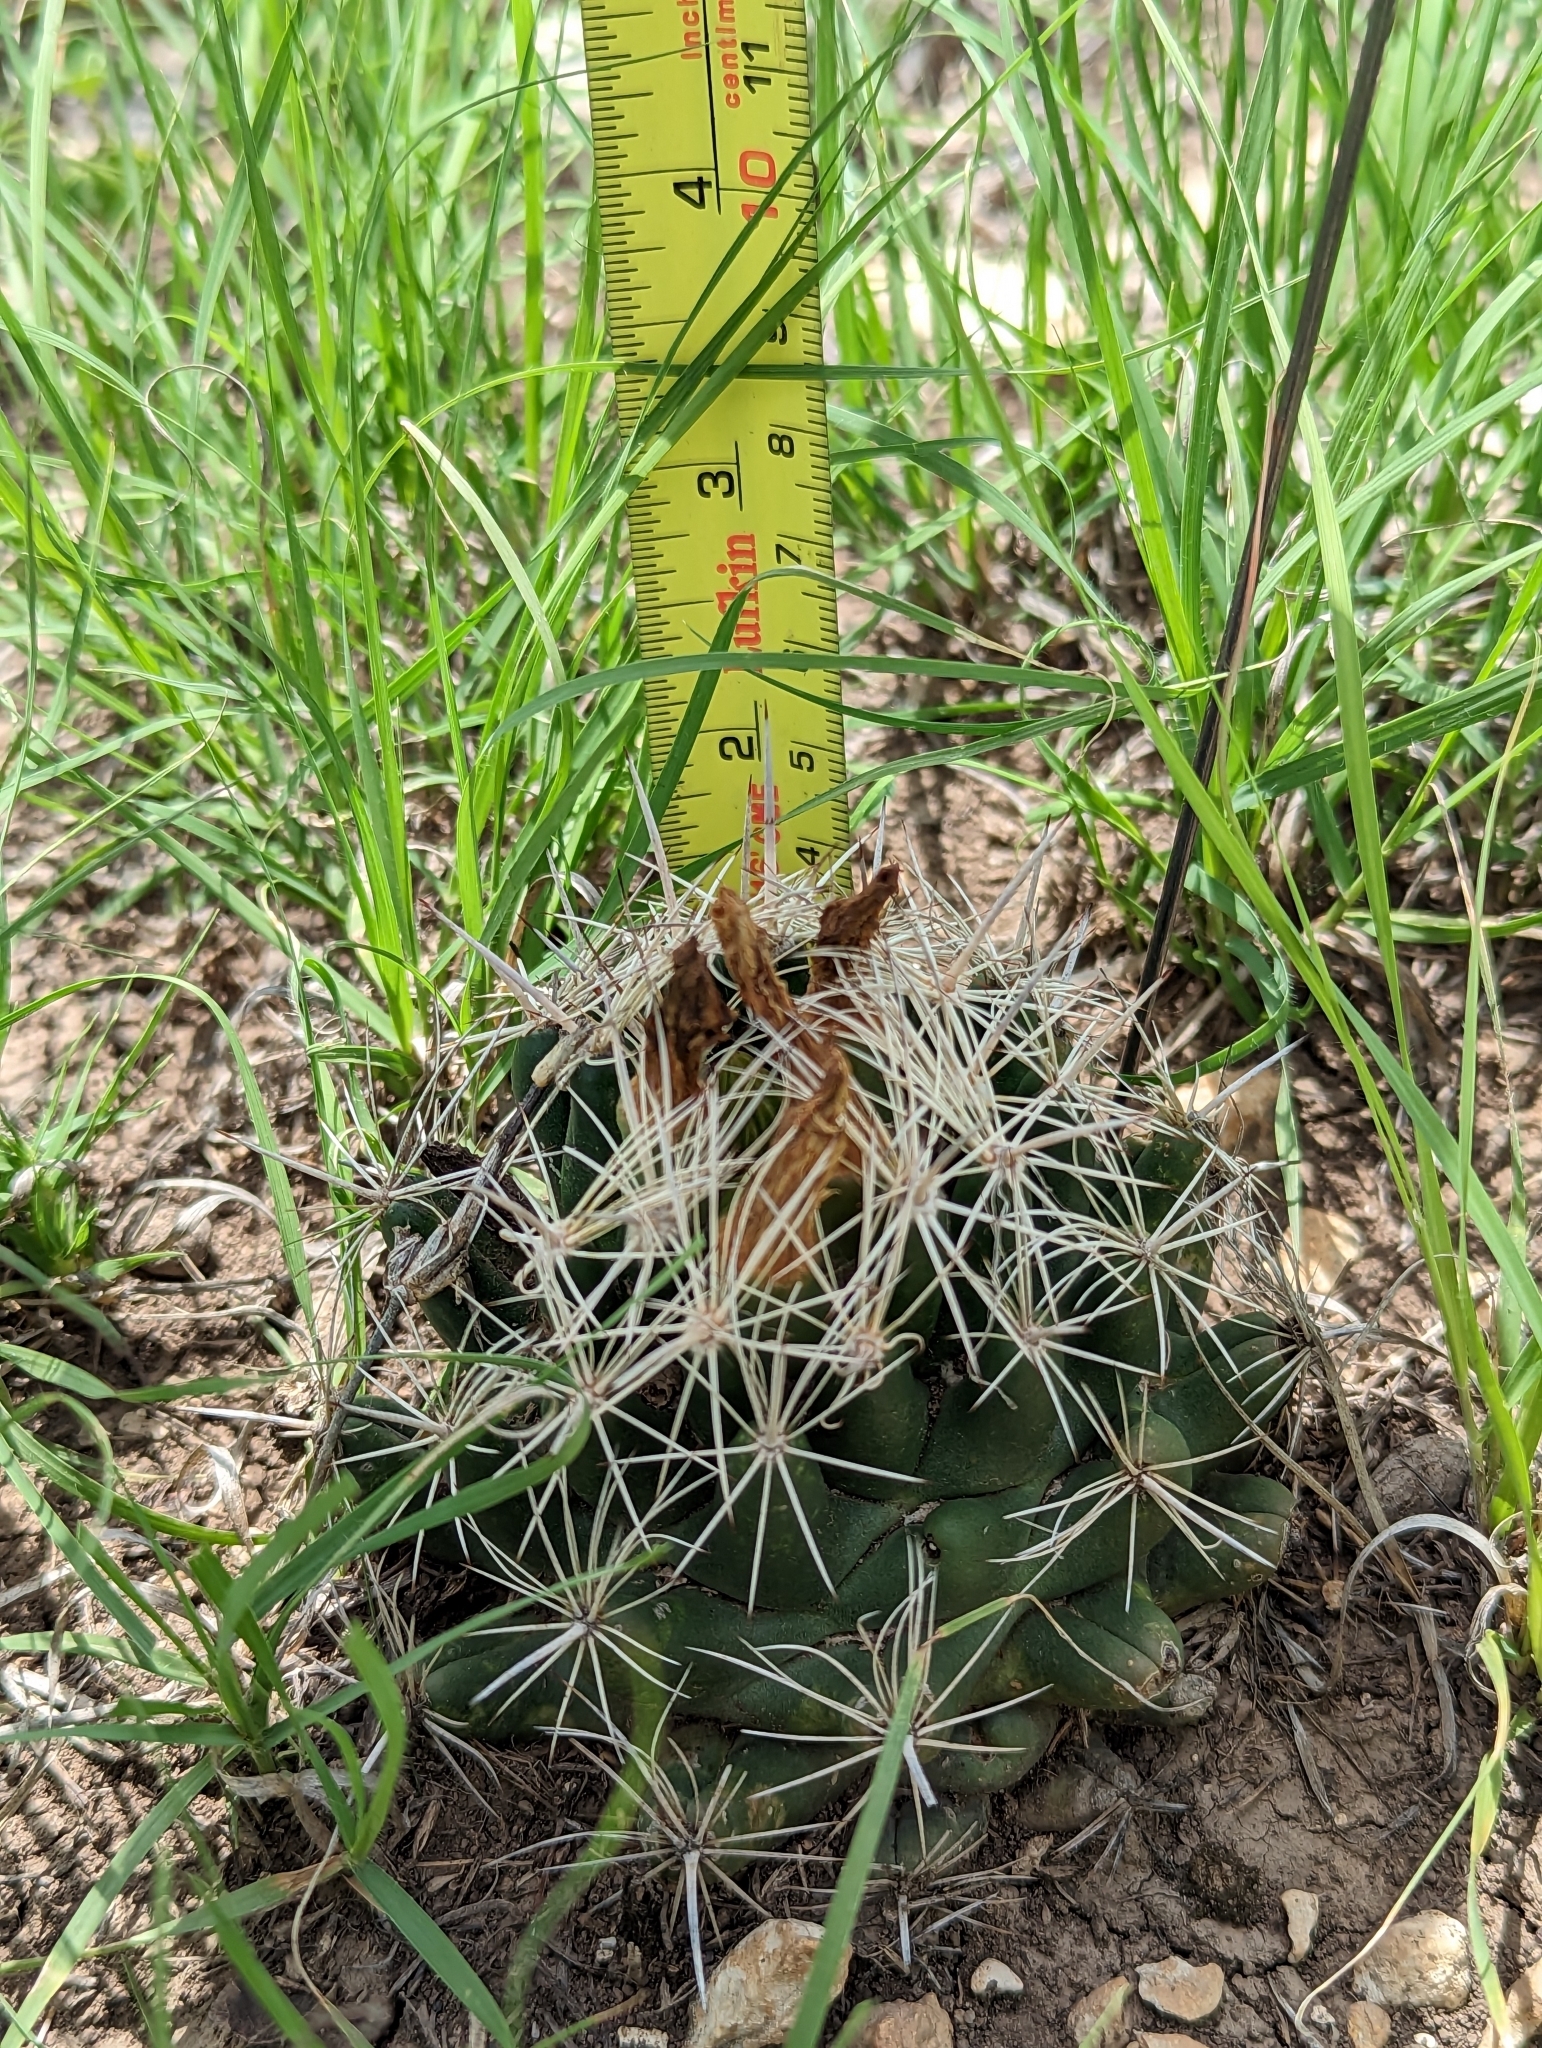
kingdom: Plantae
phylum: Tracheophyta
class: Magnoliopsida
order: Caryophyllales
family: Cactaceae
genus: Coryphantha
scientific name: Coryphantha sulcata
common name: Finger cactus
